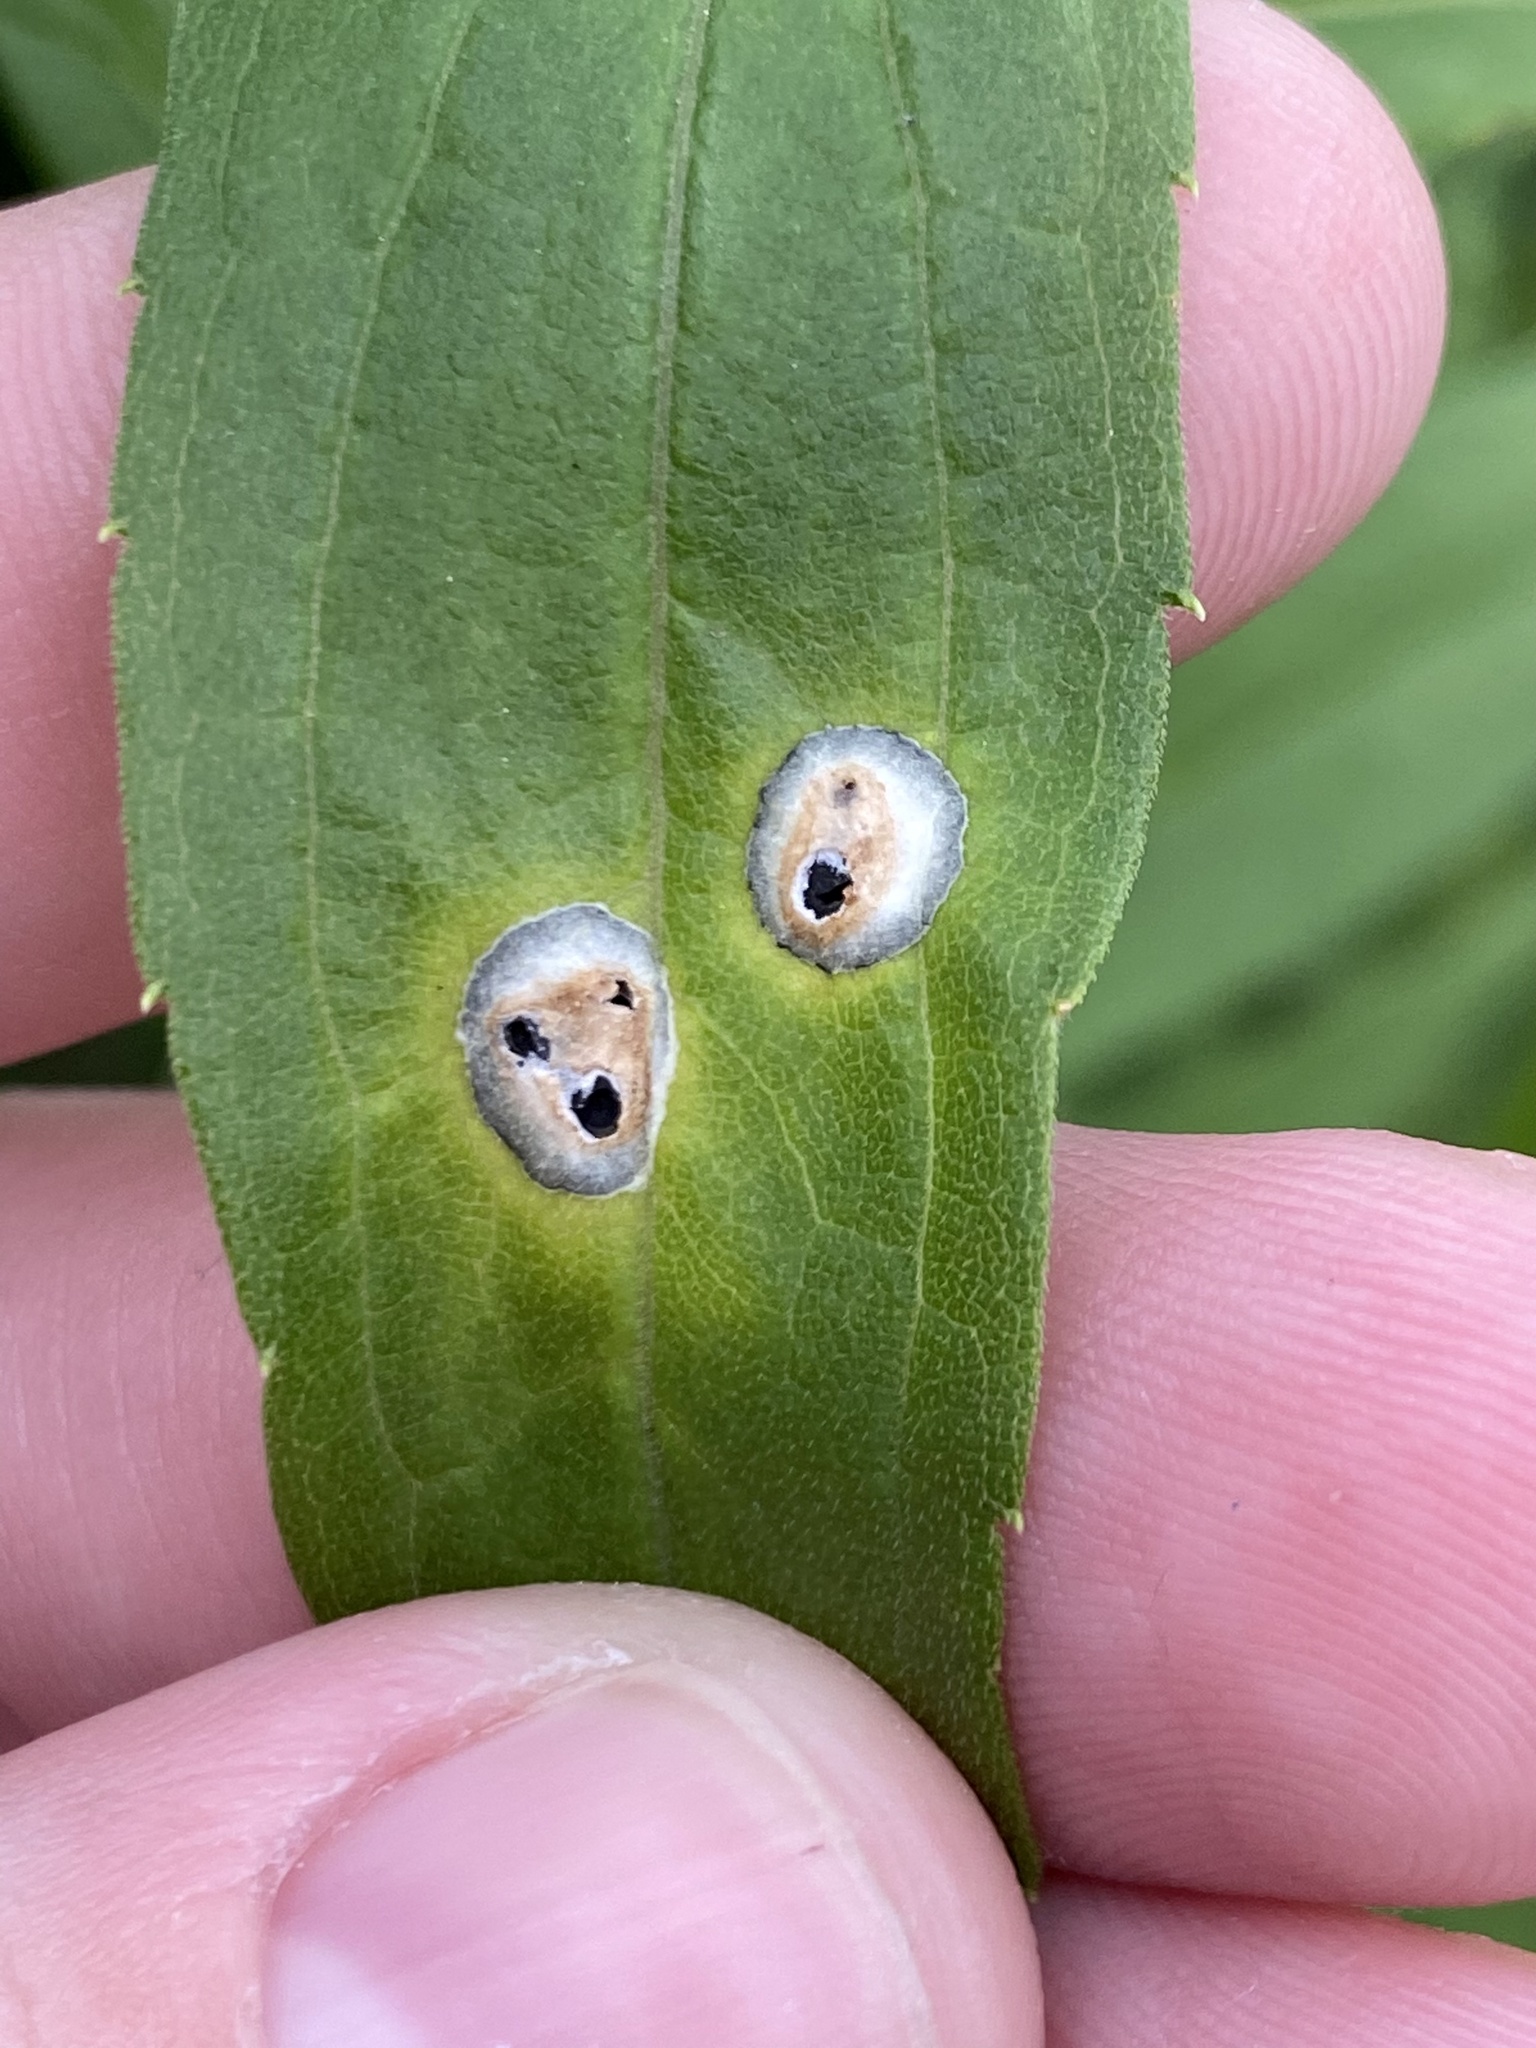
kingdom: Animalia
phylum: Arthropoda
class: Insecta
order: Diptera
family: Cecidomyiidae
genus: Asteromyia
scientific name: Asteromyia carbonifera
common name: Carbonifera goldenrod gall midge
